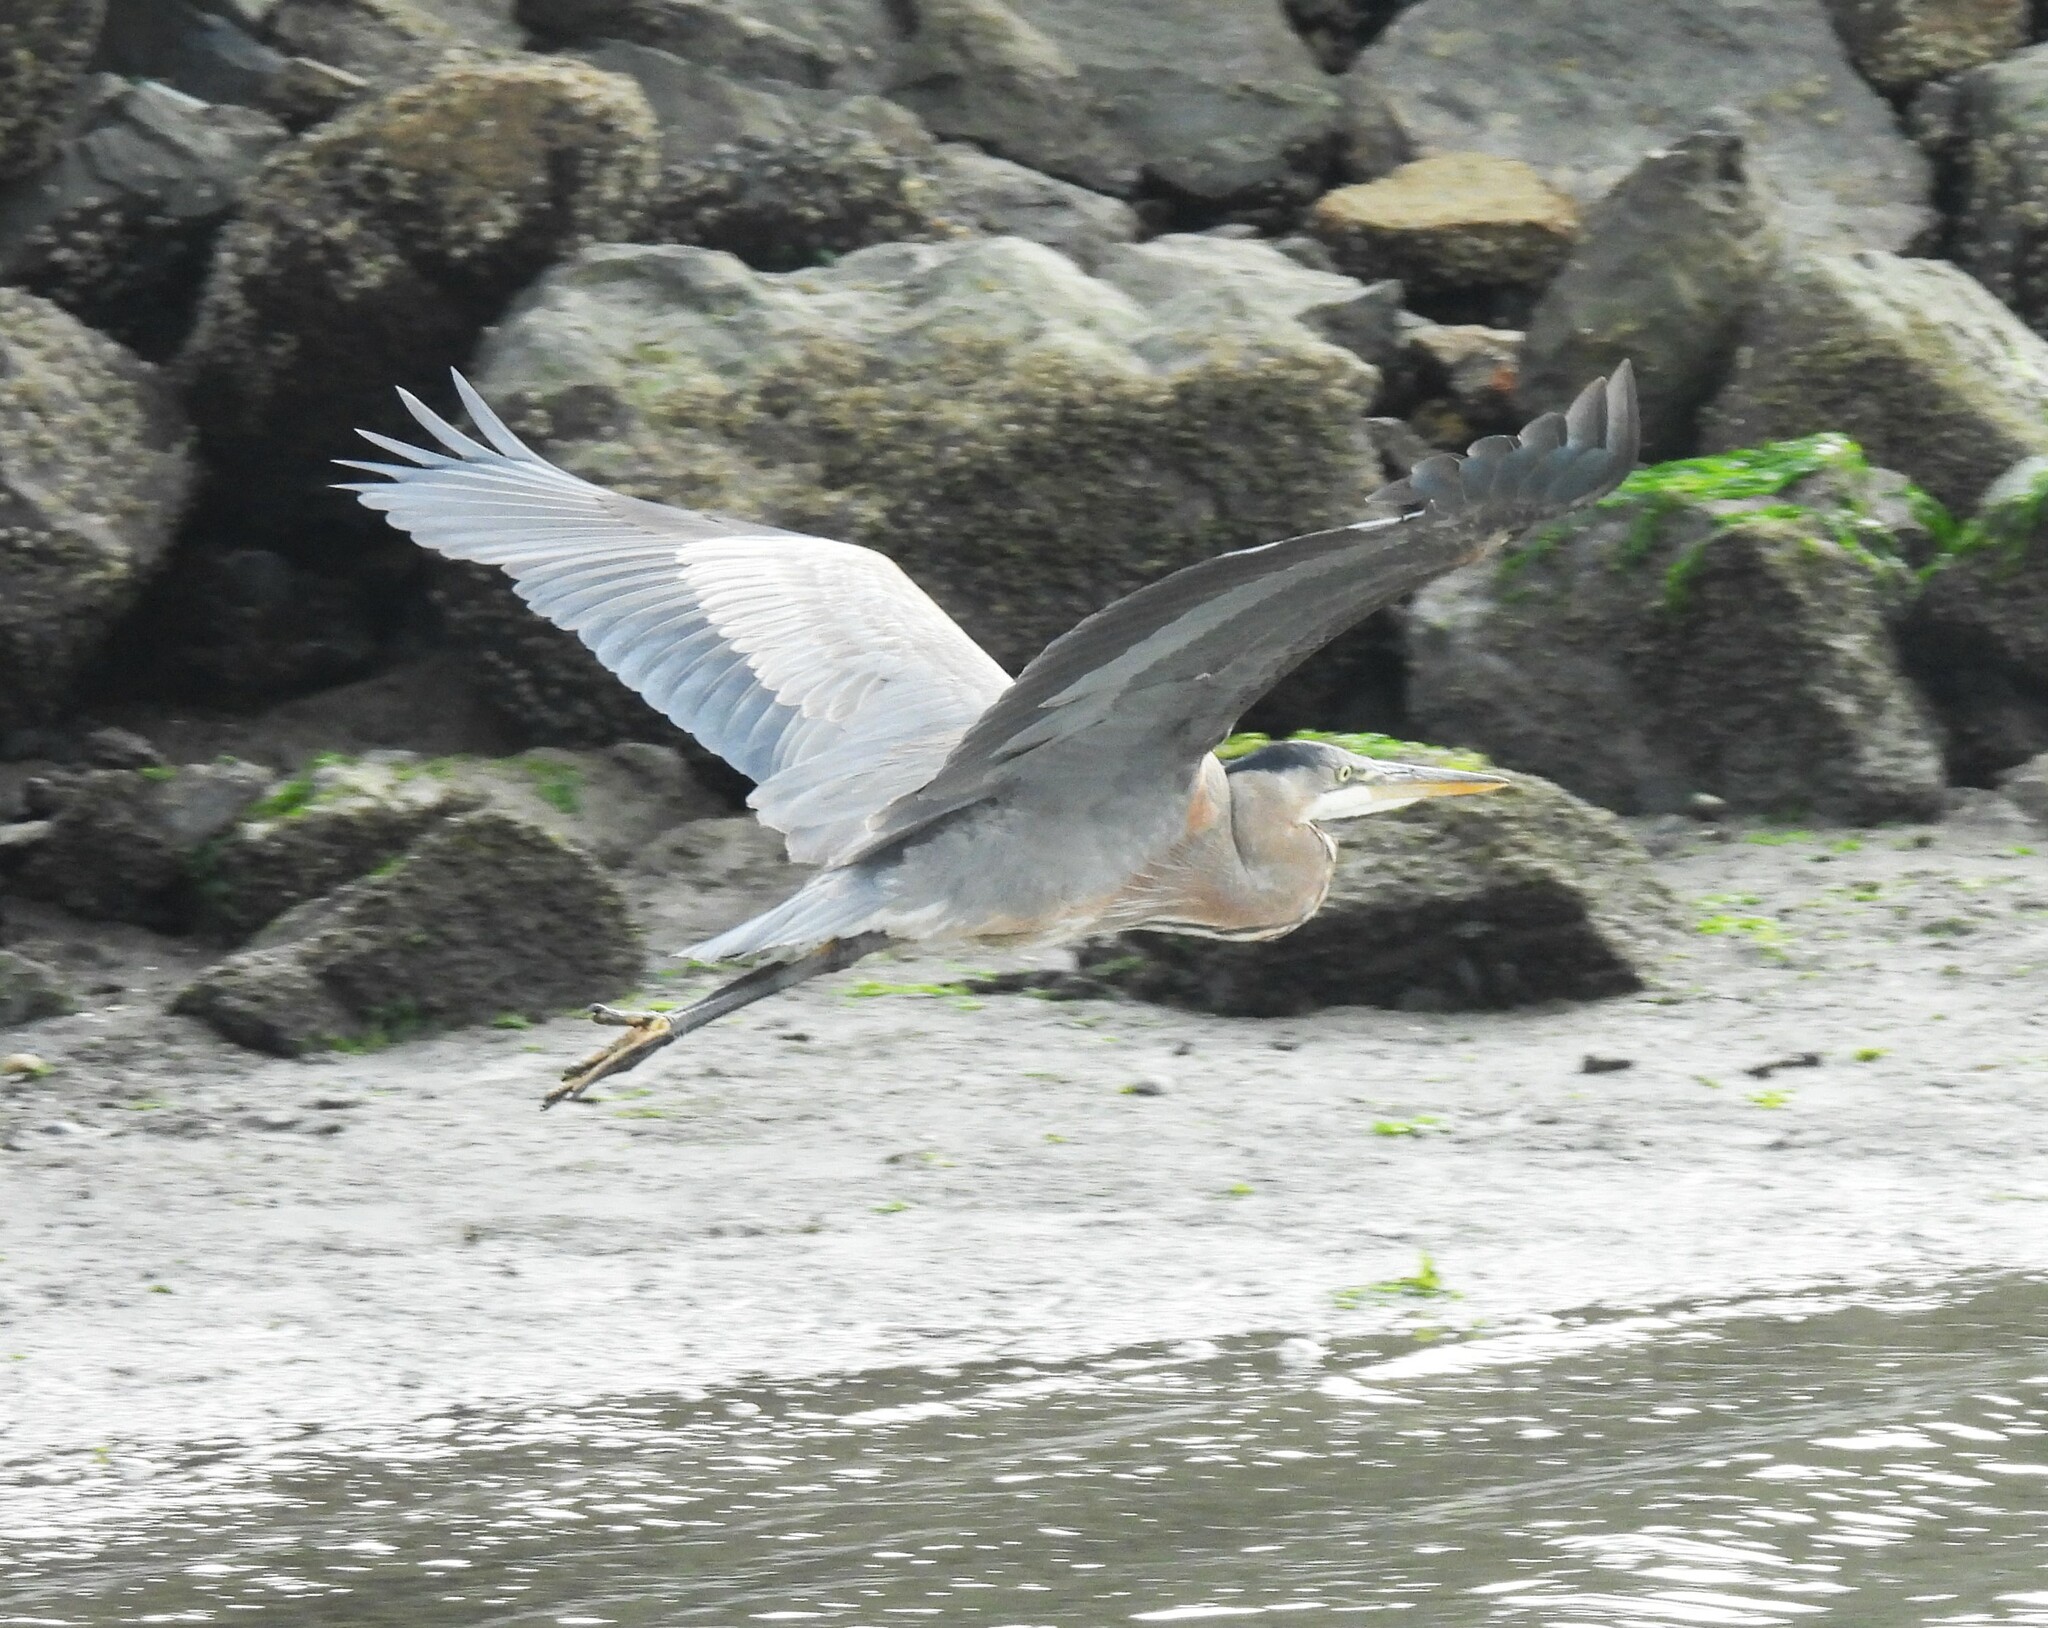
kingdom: Animalia
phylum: Chordata
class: Aves
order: Pelecaniformes
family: Ardeidae
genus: Ardea
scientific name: Ardea herodias
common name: Great blue heron
